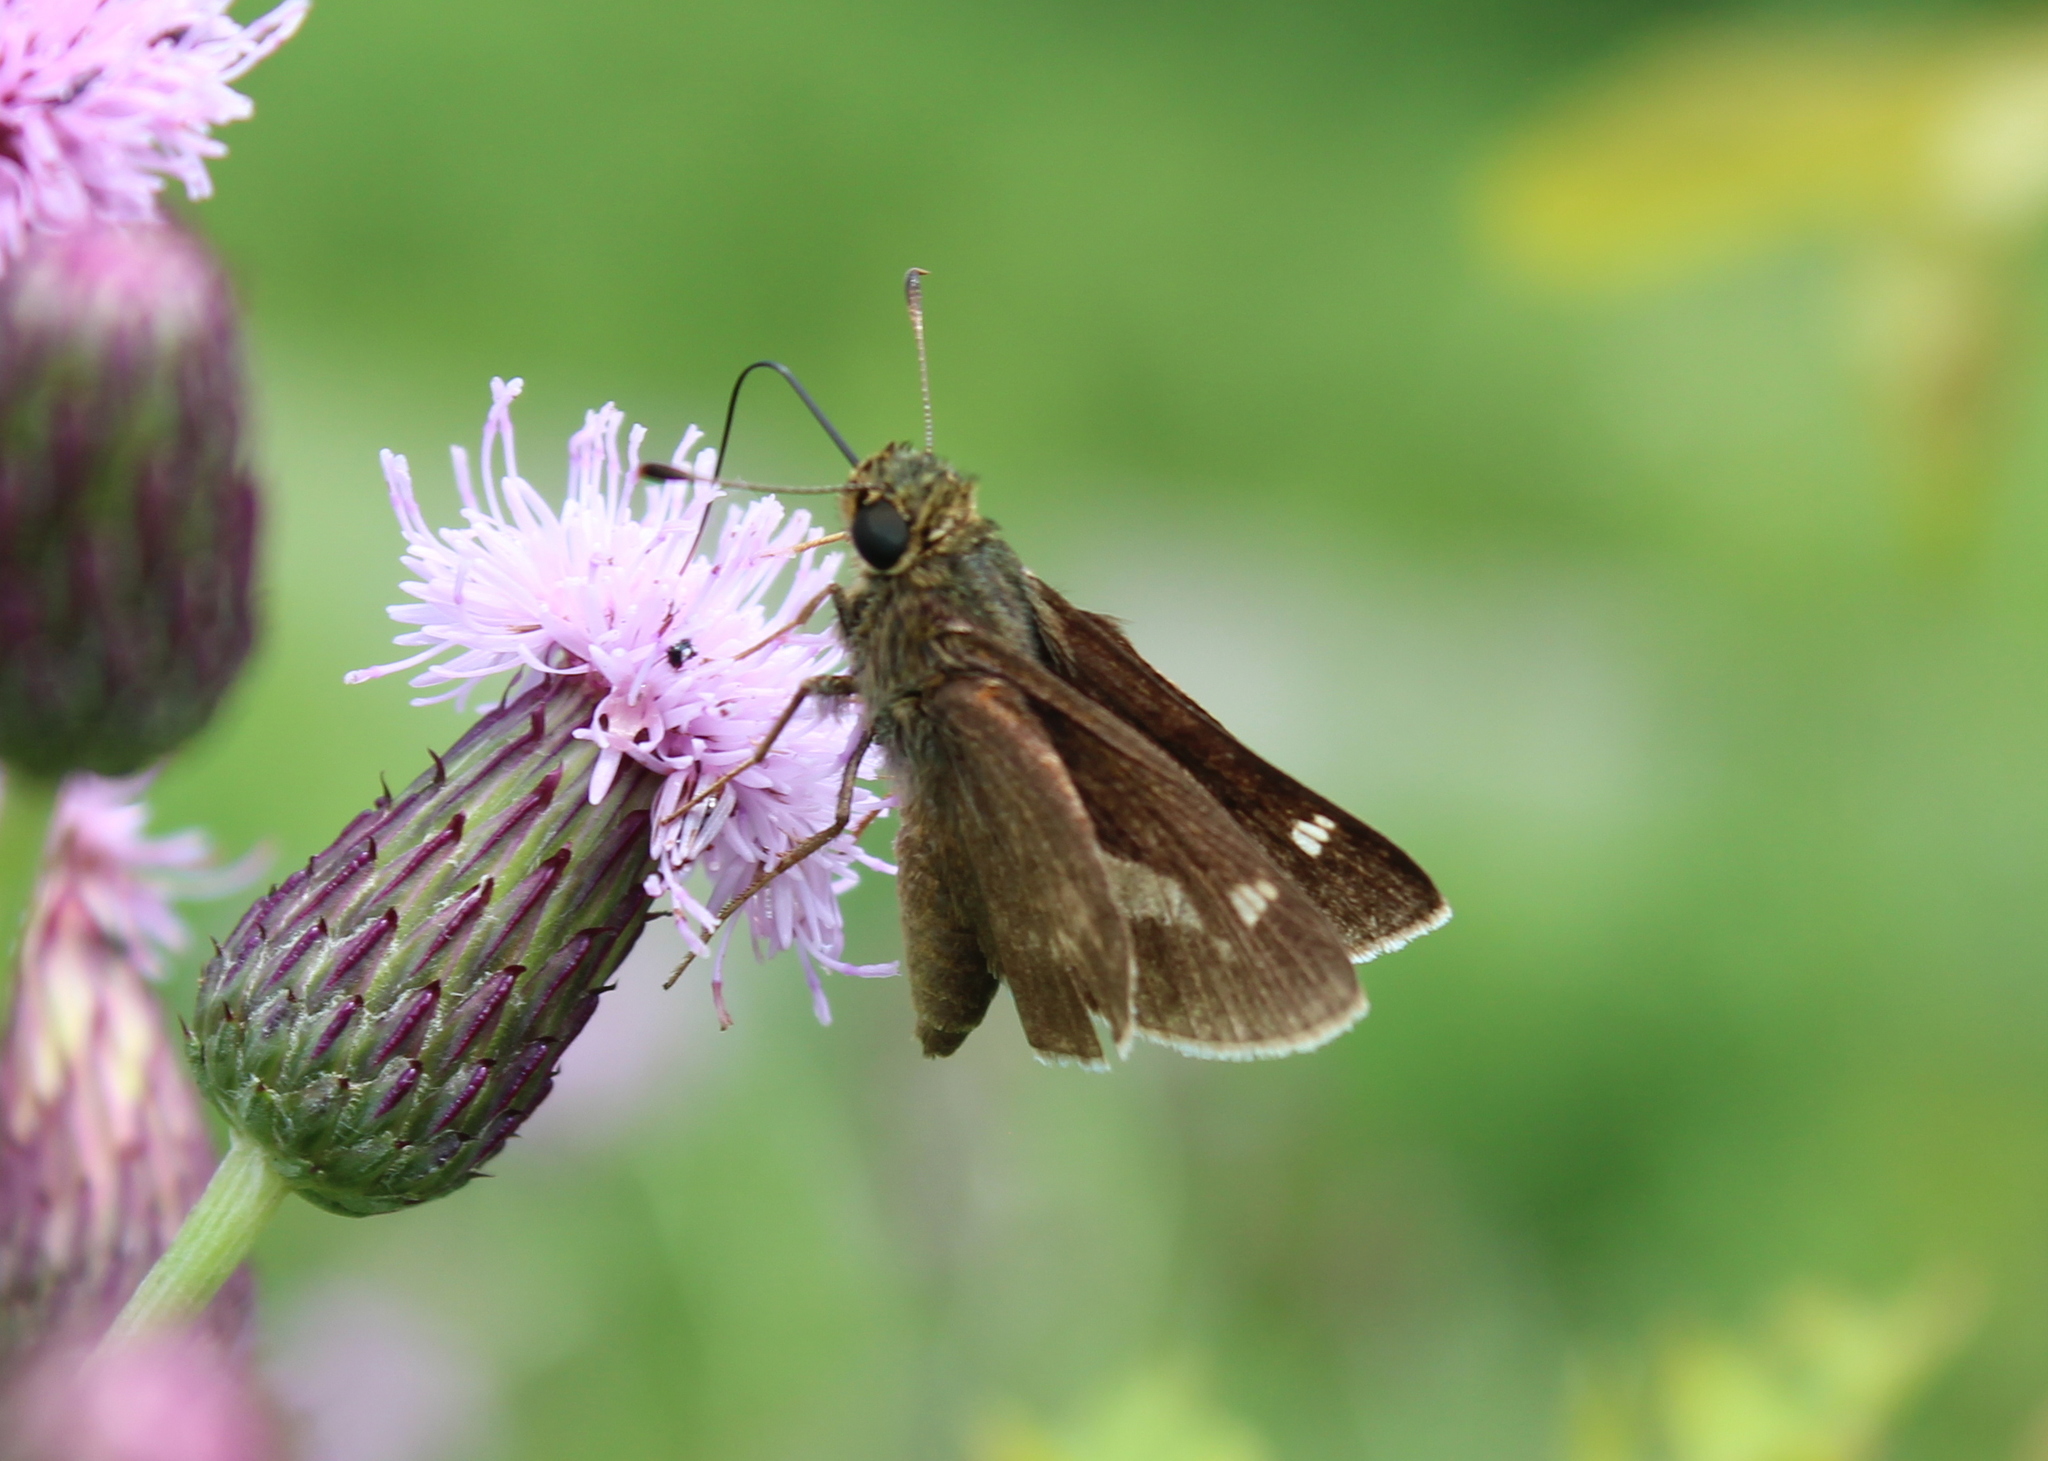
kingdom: Animalia
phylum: Arthropoda
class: Insecta
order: Lepidoptera
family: Hesperiidae
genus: Vernia
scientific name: Vernia verna
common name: Little glassywing
